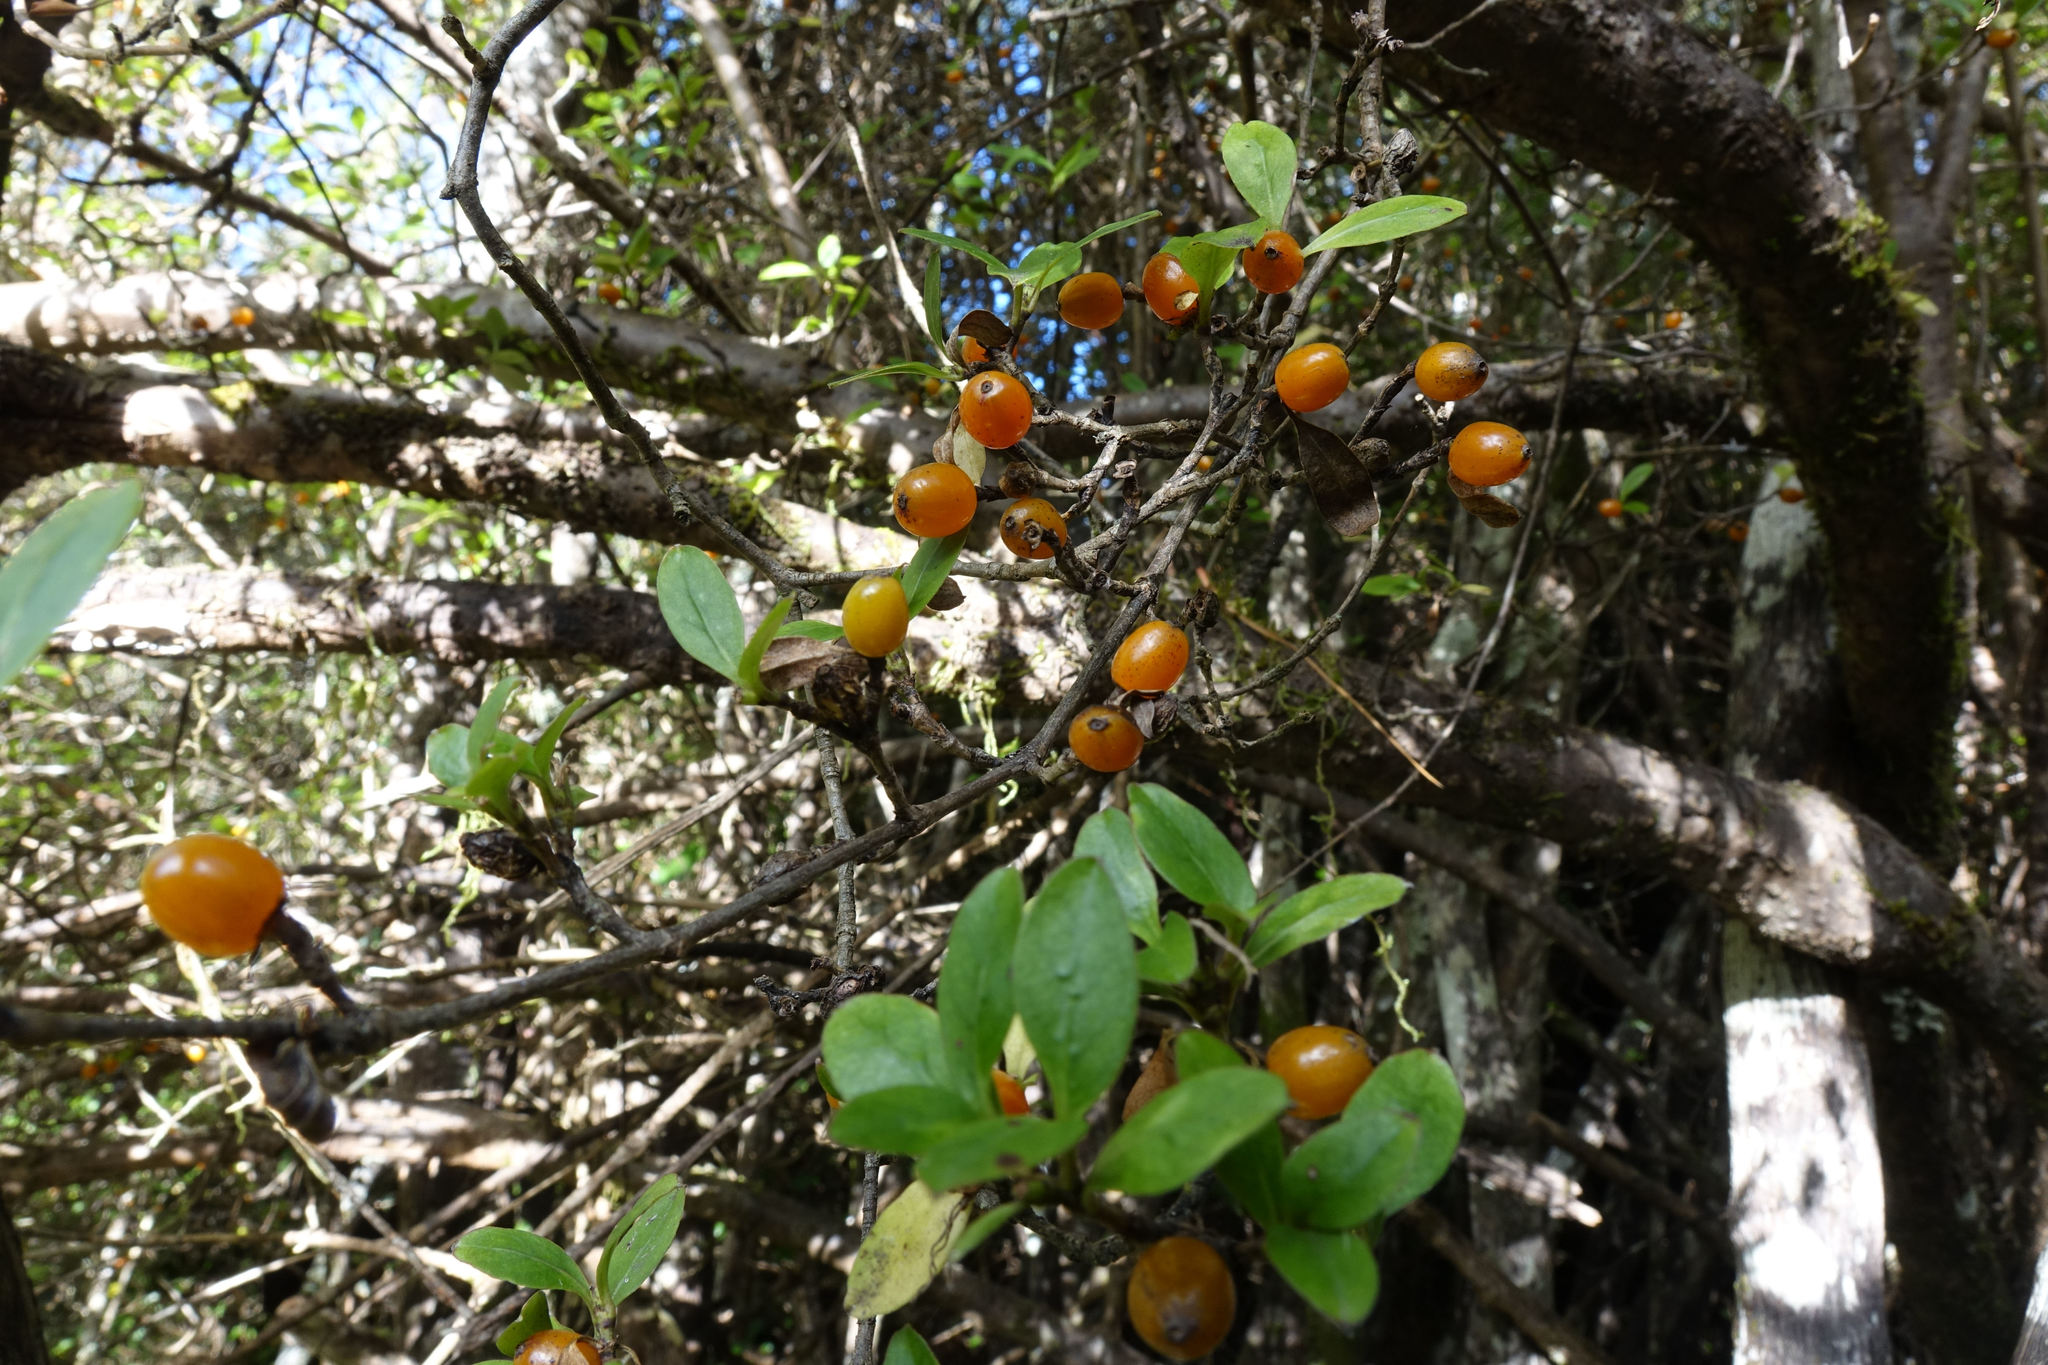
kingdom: Plantae
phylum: Tracheophyta
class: Magnoliopsida
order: Gentianales
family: Rubiaceae
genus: Coprosma
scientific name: Coprosma foetidissima
